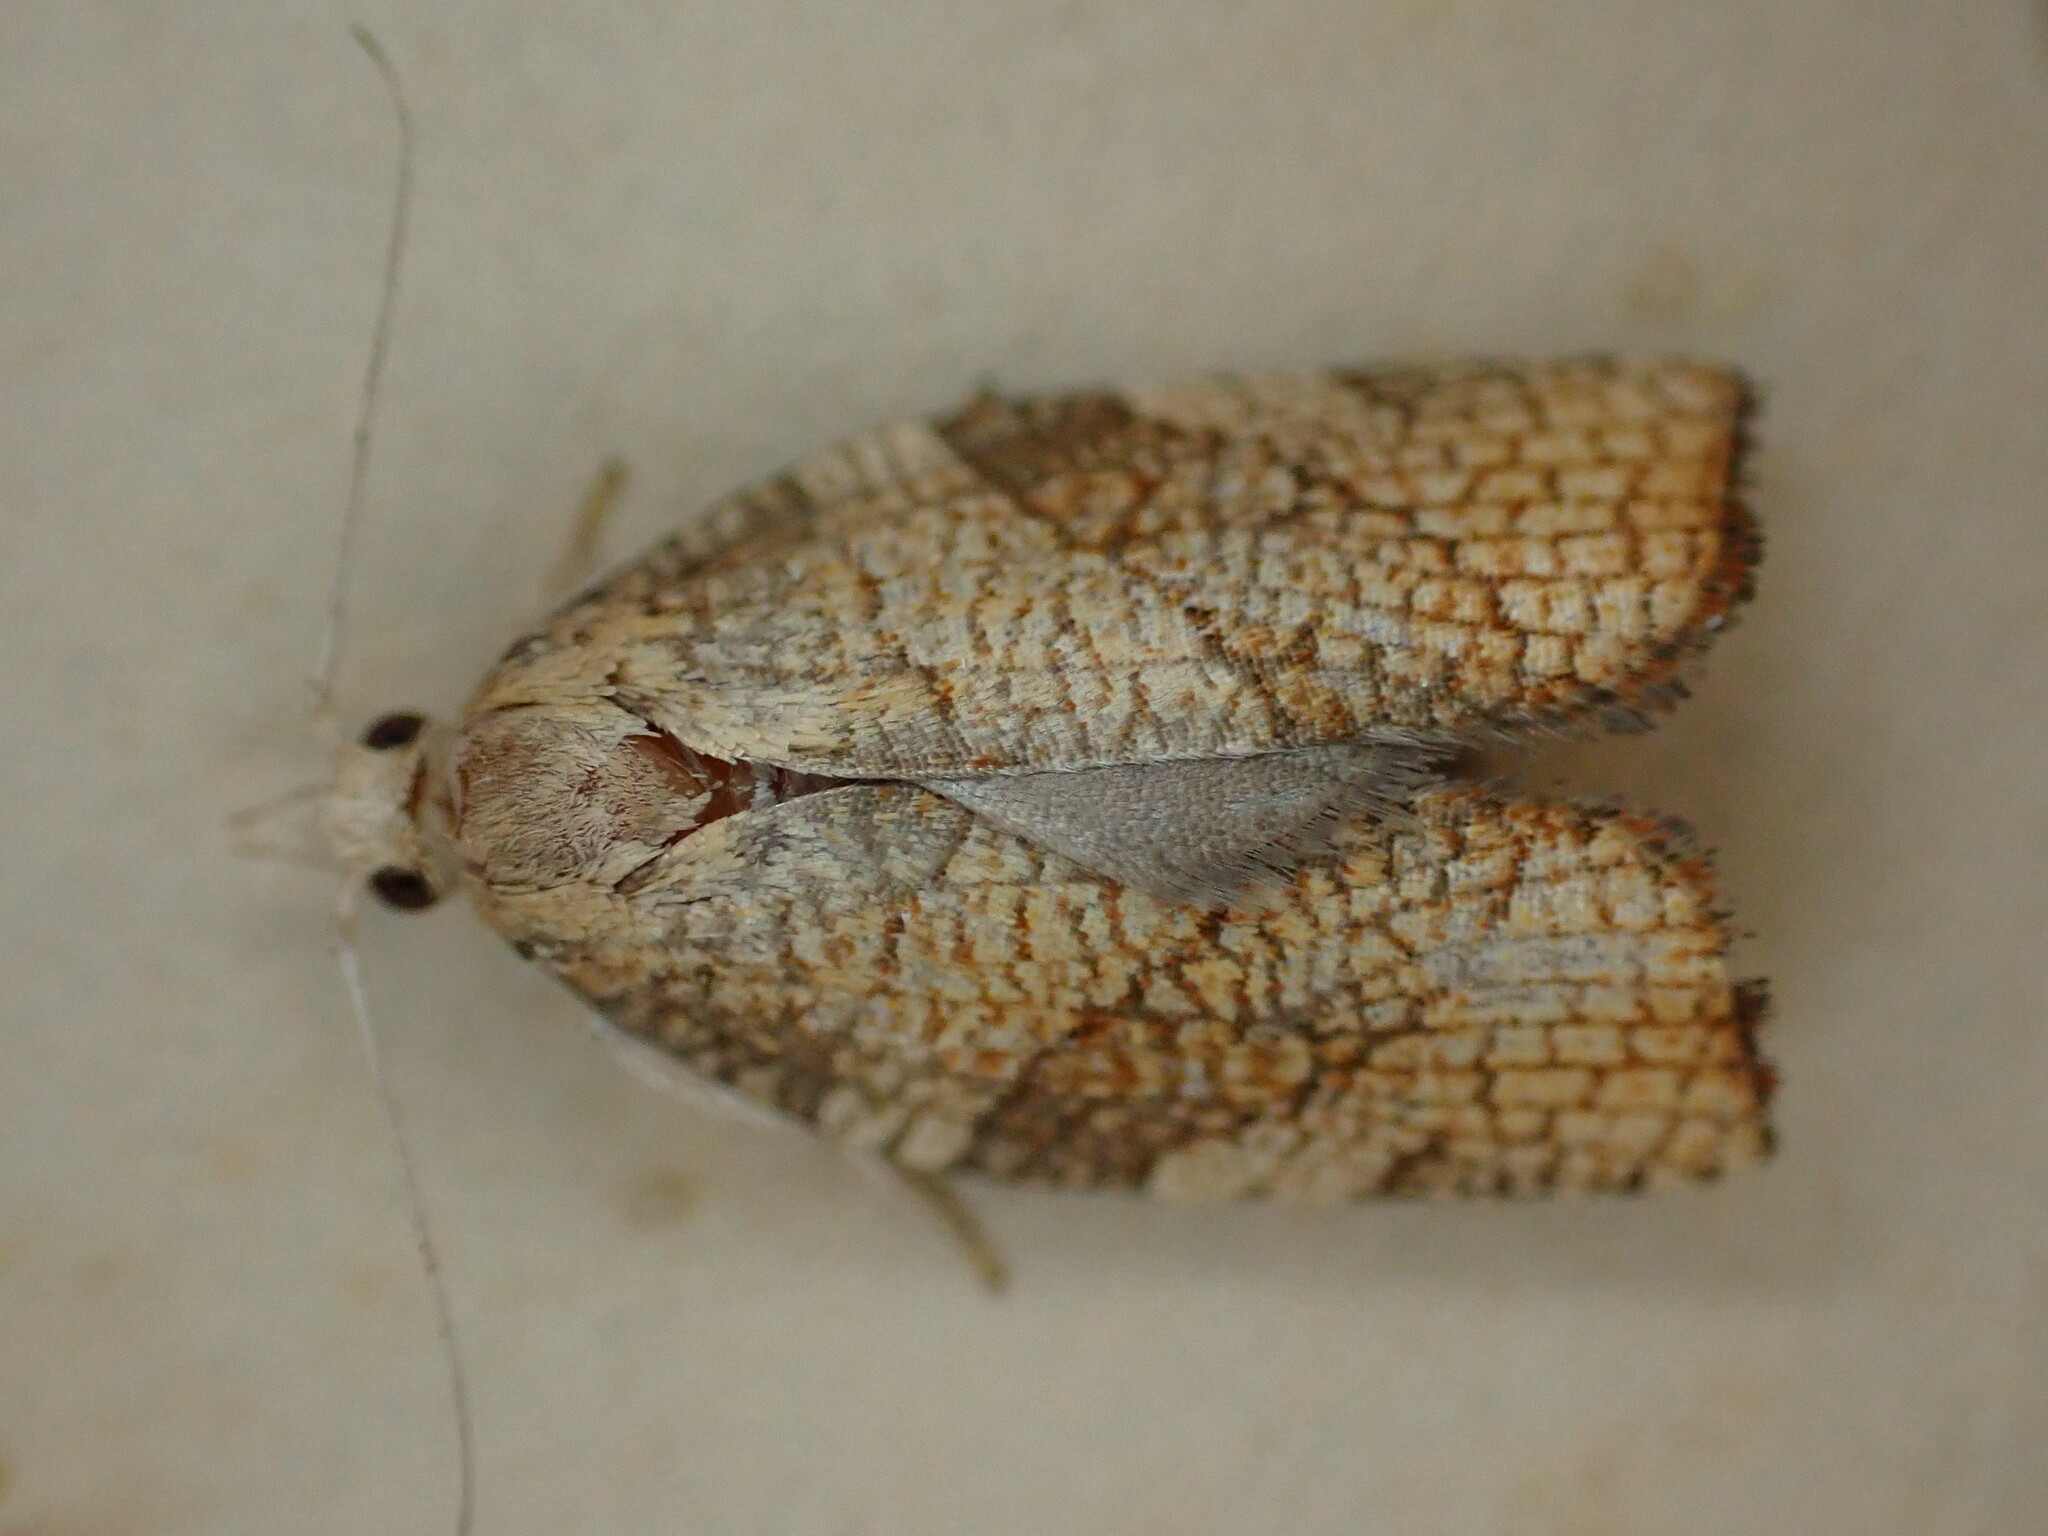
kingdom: Animalia
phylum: Arthropoda
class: Insecta
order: Lepidoptera
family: Tortricidae
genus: Pandemis
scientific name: Pandemis corylana
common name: Chequered fruit-tree tortrix
